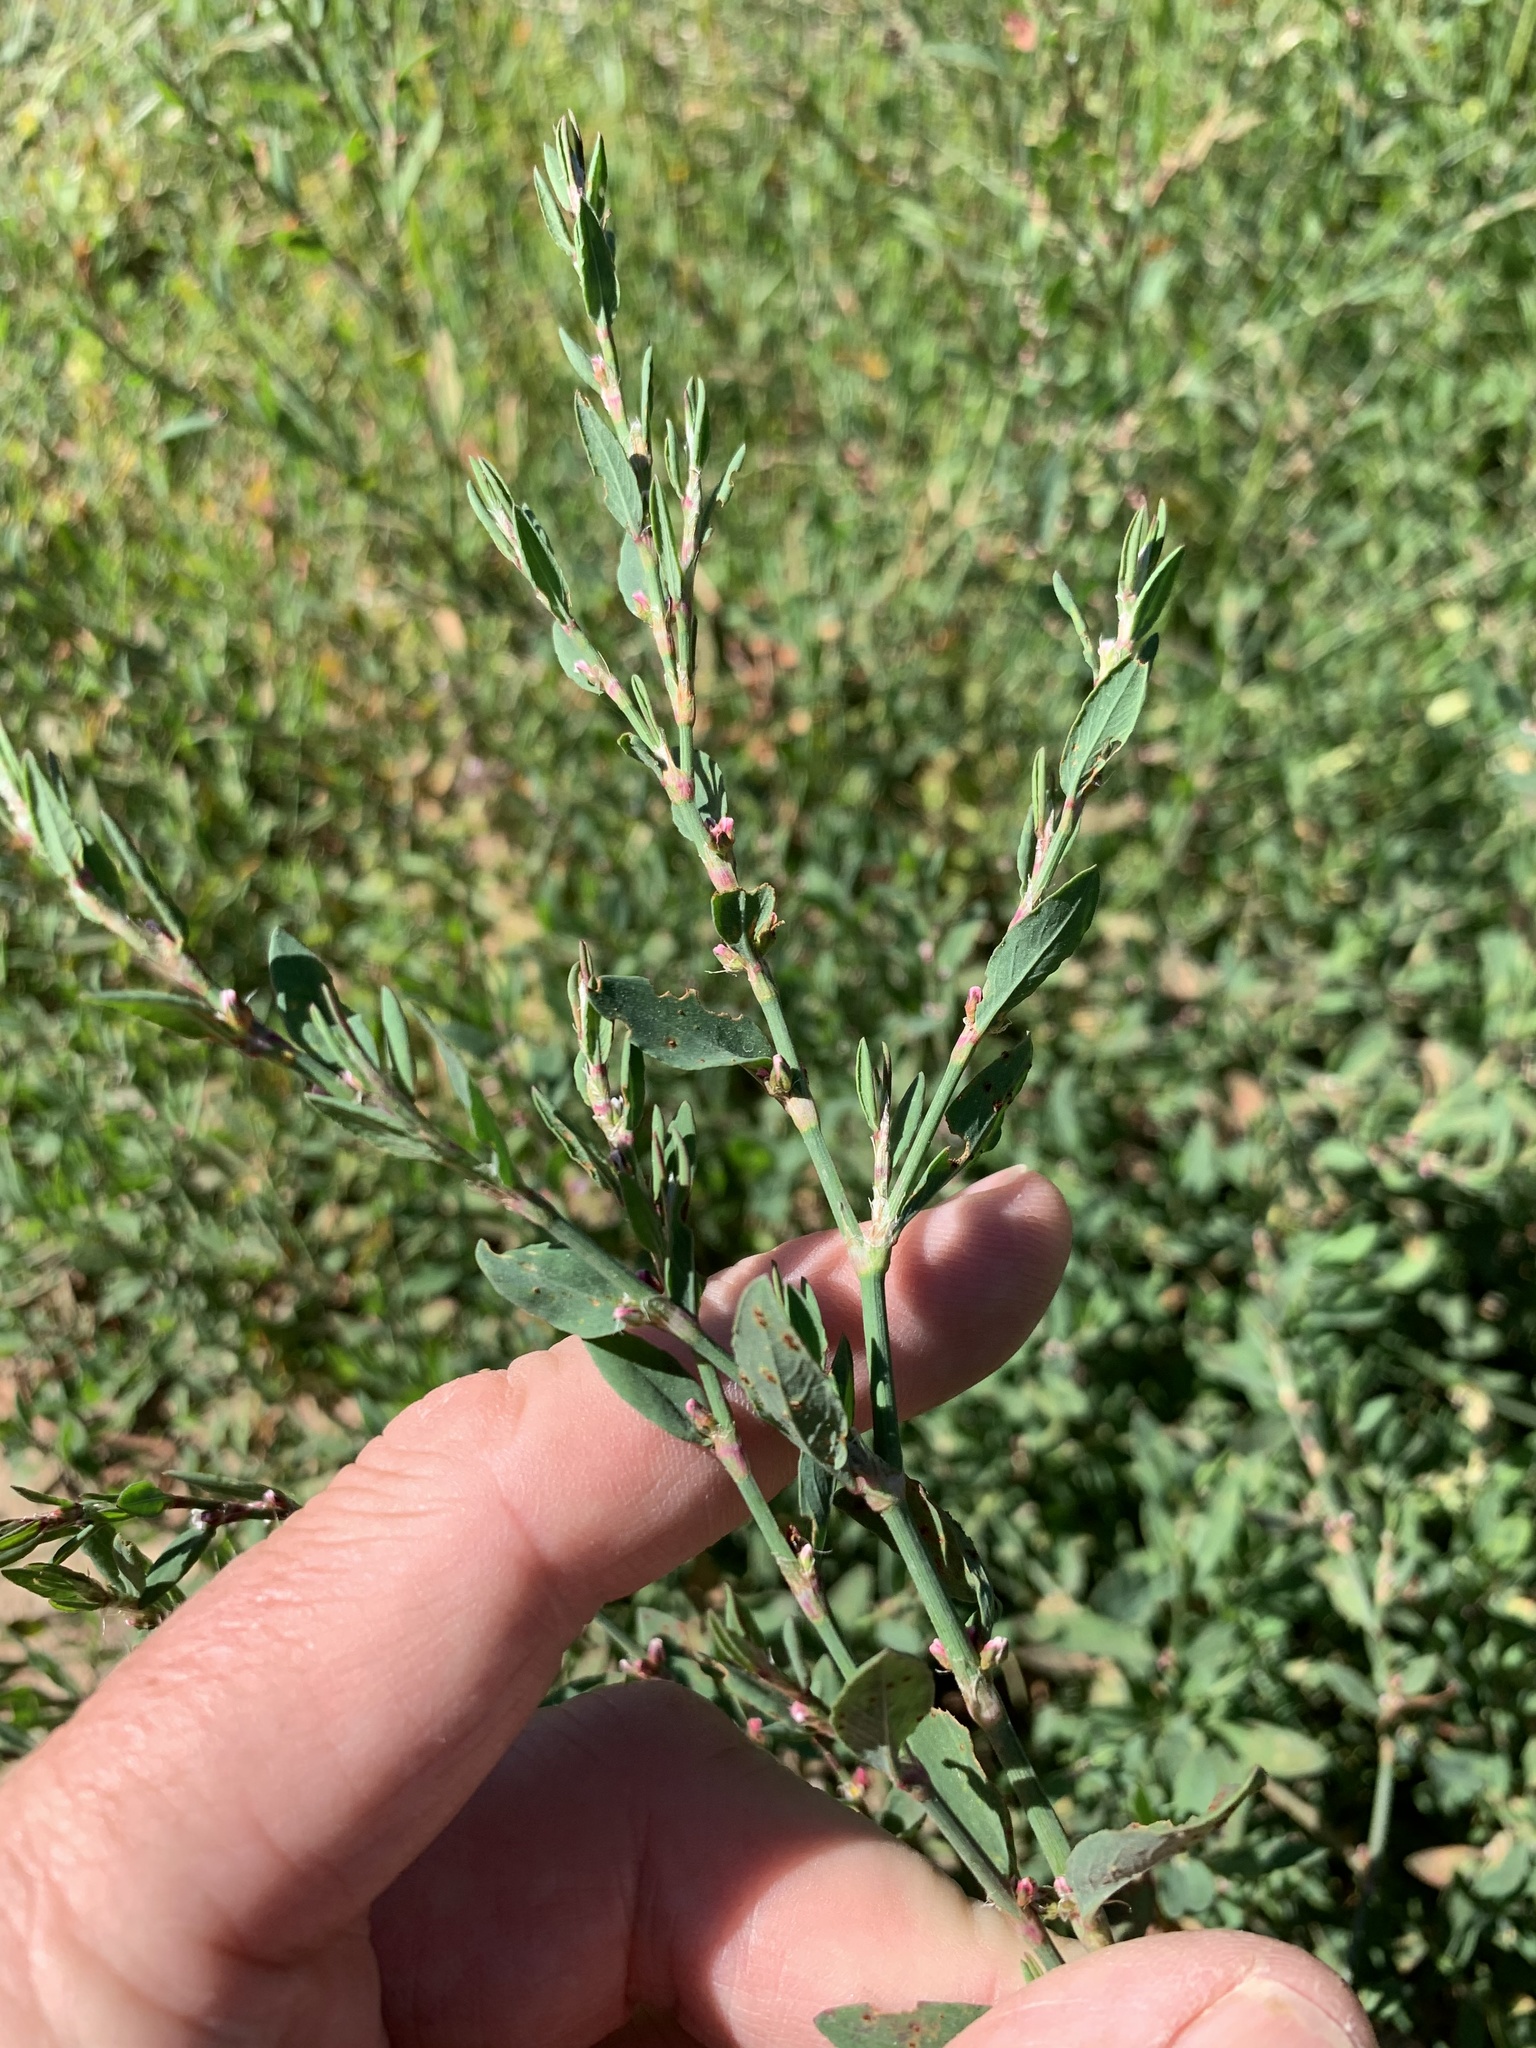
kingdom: Plantae
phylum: Tracheophyta
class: Magnoliopsida
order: Caryophyllales
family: Polygonaceae
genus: Polygonum
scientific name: Polygonum aviculare
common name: Prostrate knotweed
